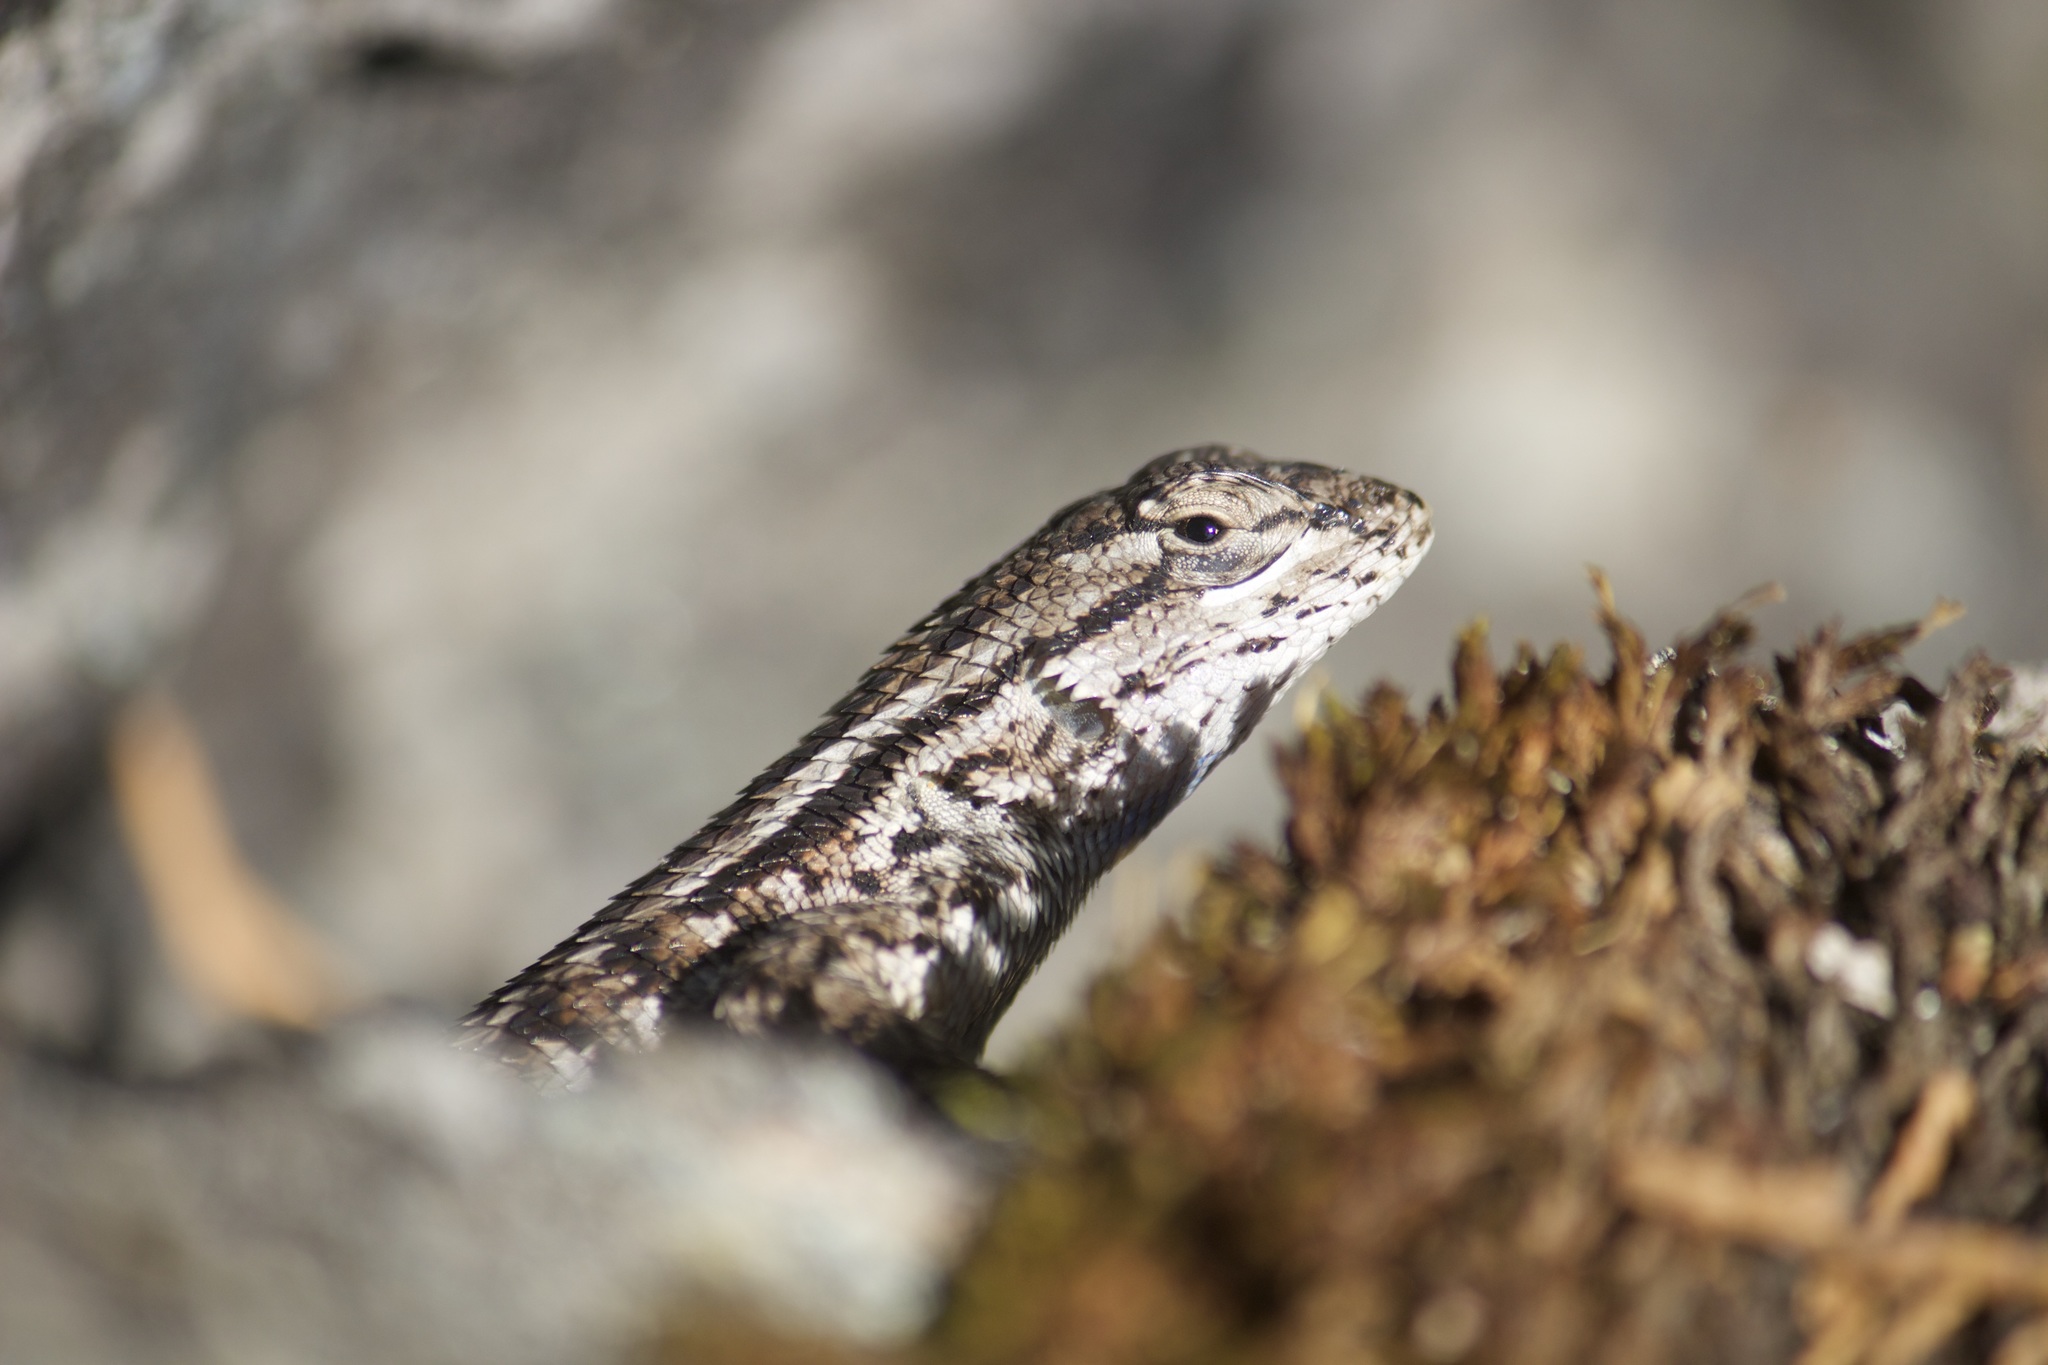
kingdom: Animalia
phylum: Chordata
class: Squamata
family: Phrynosomatidae
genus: Sceloporus
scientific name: Sceloporus occidentalis
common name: Western fence lizard
